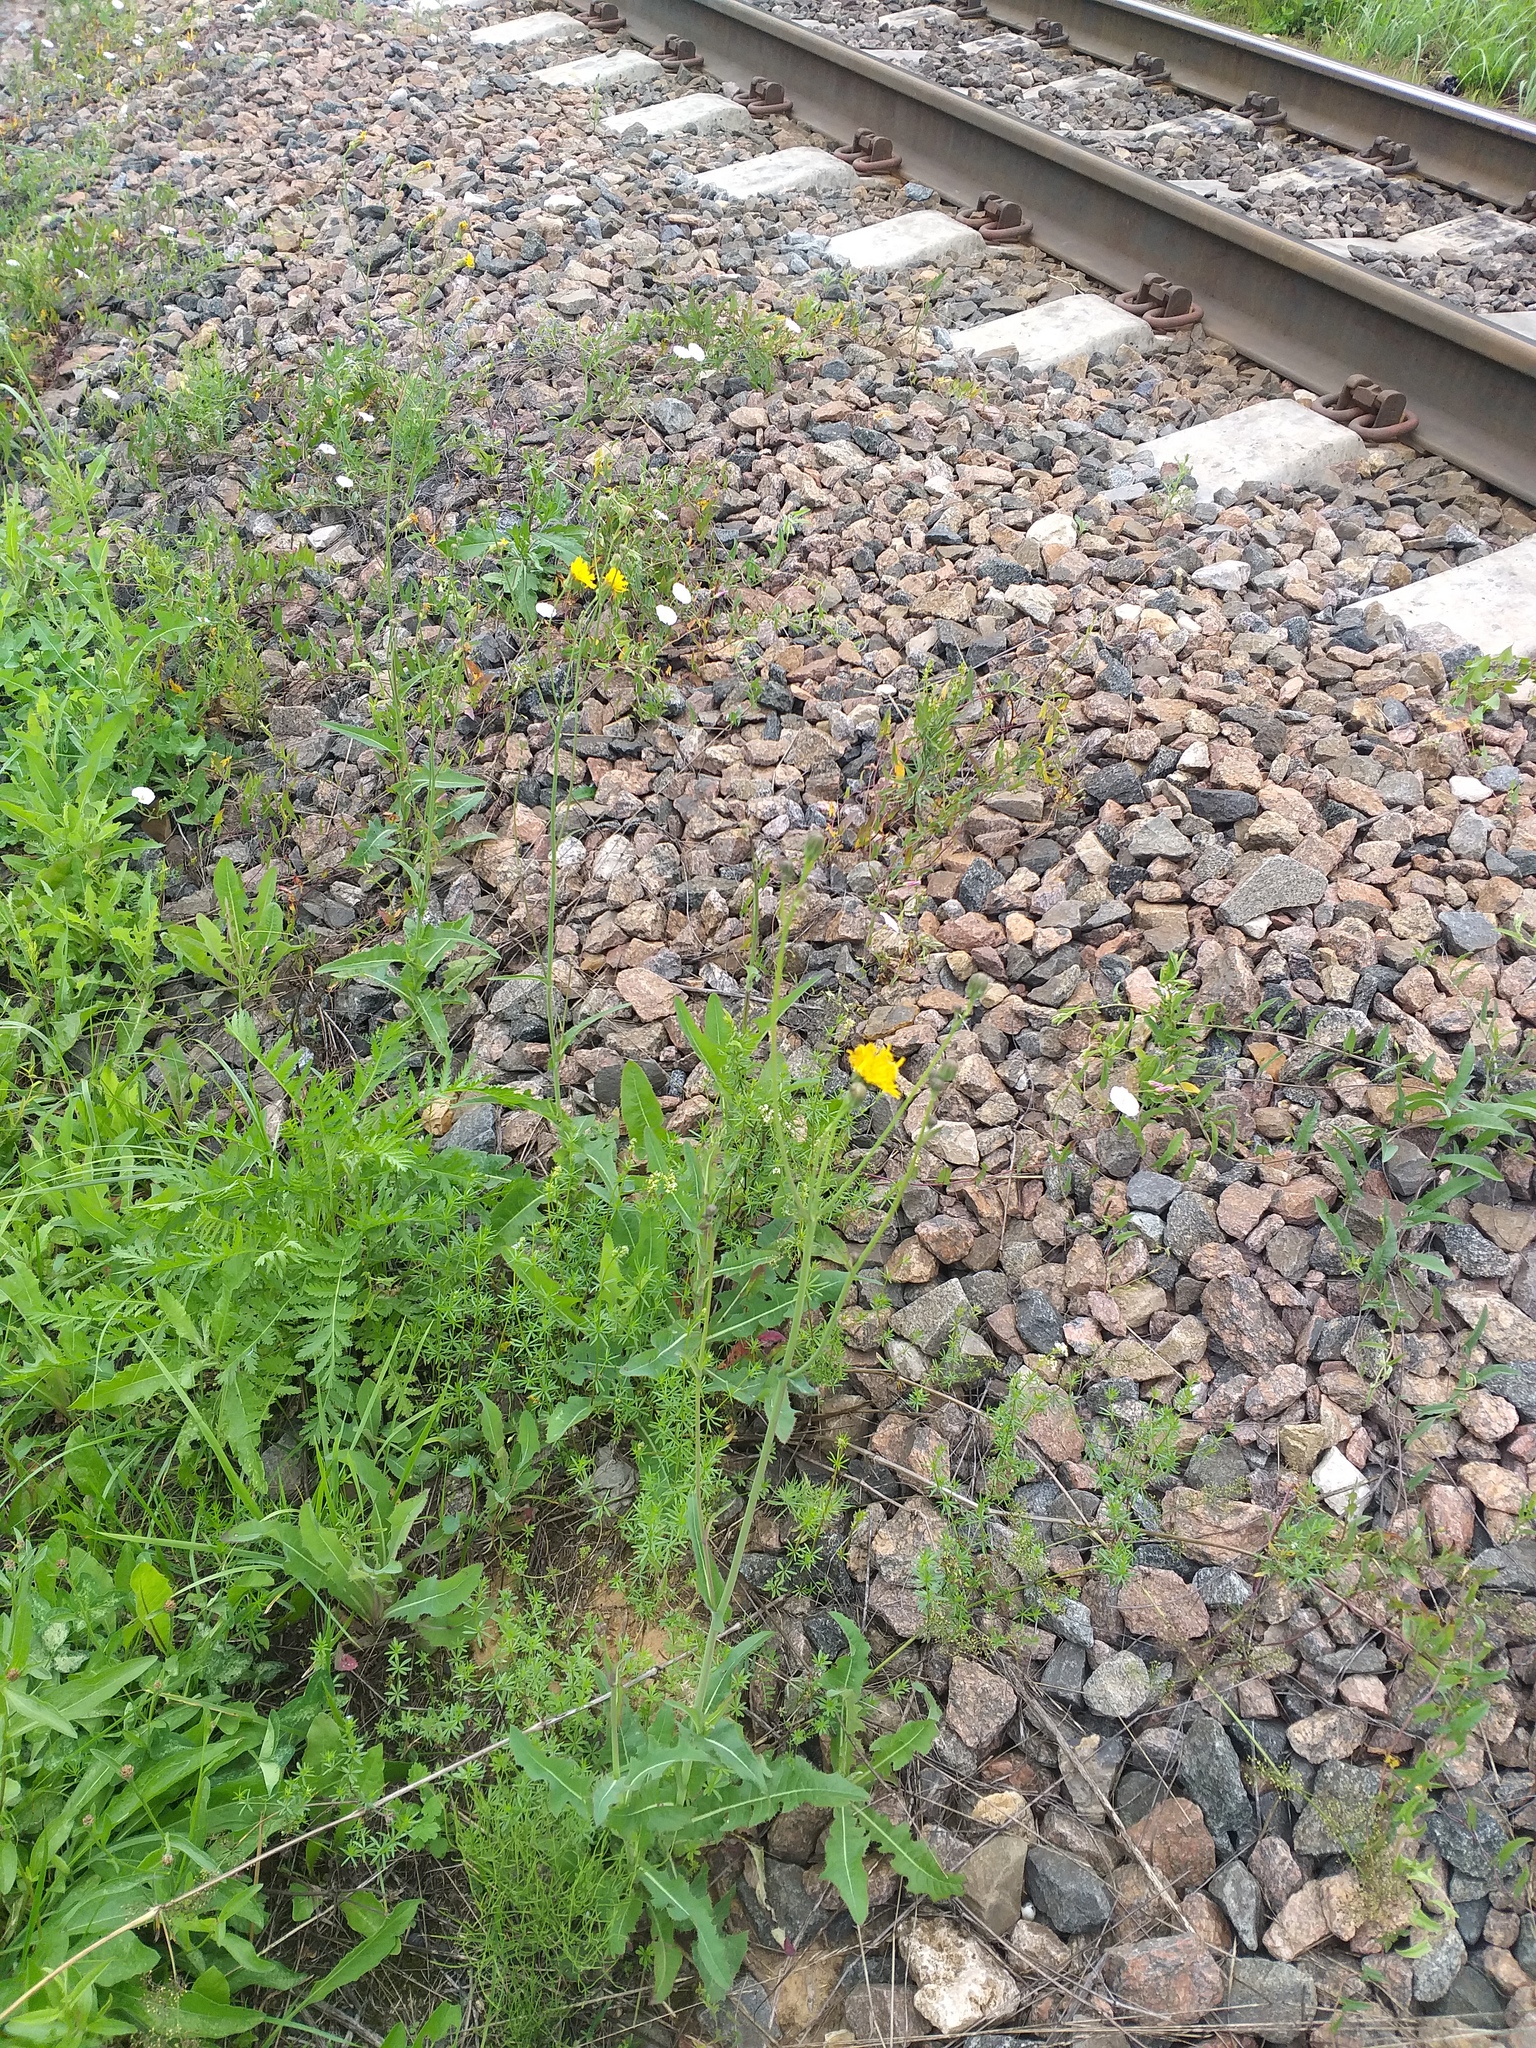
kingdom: Plantae
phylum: Tracheophyta
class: Magnoliopsida
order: Asterales
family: Asteraceae
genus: Sonchus
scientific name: Sonchus arvensis
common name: Perennial sow-thistle
